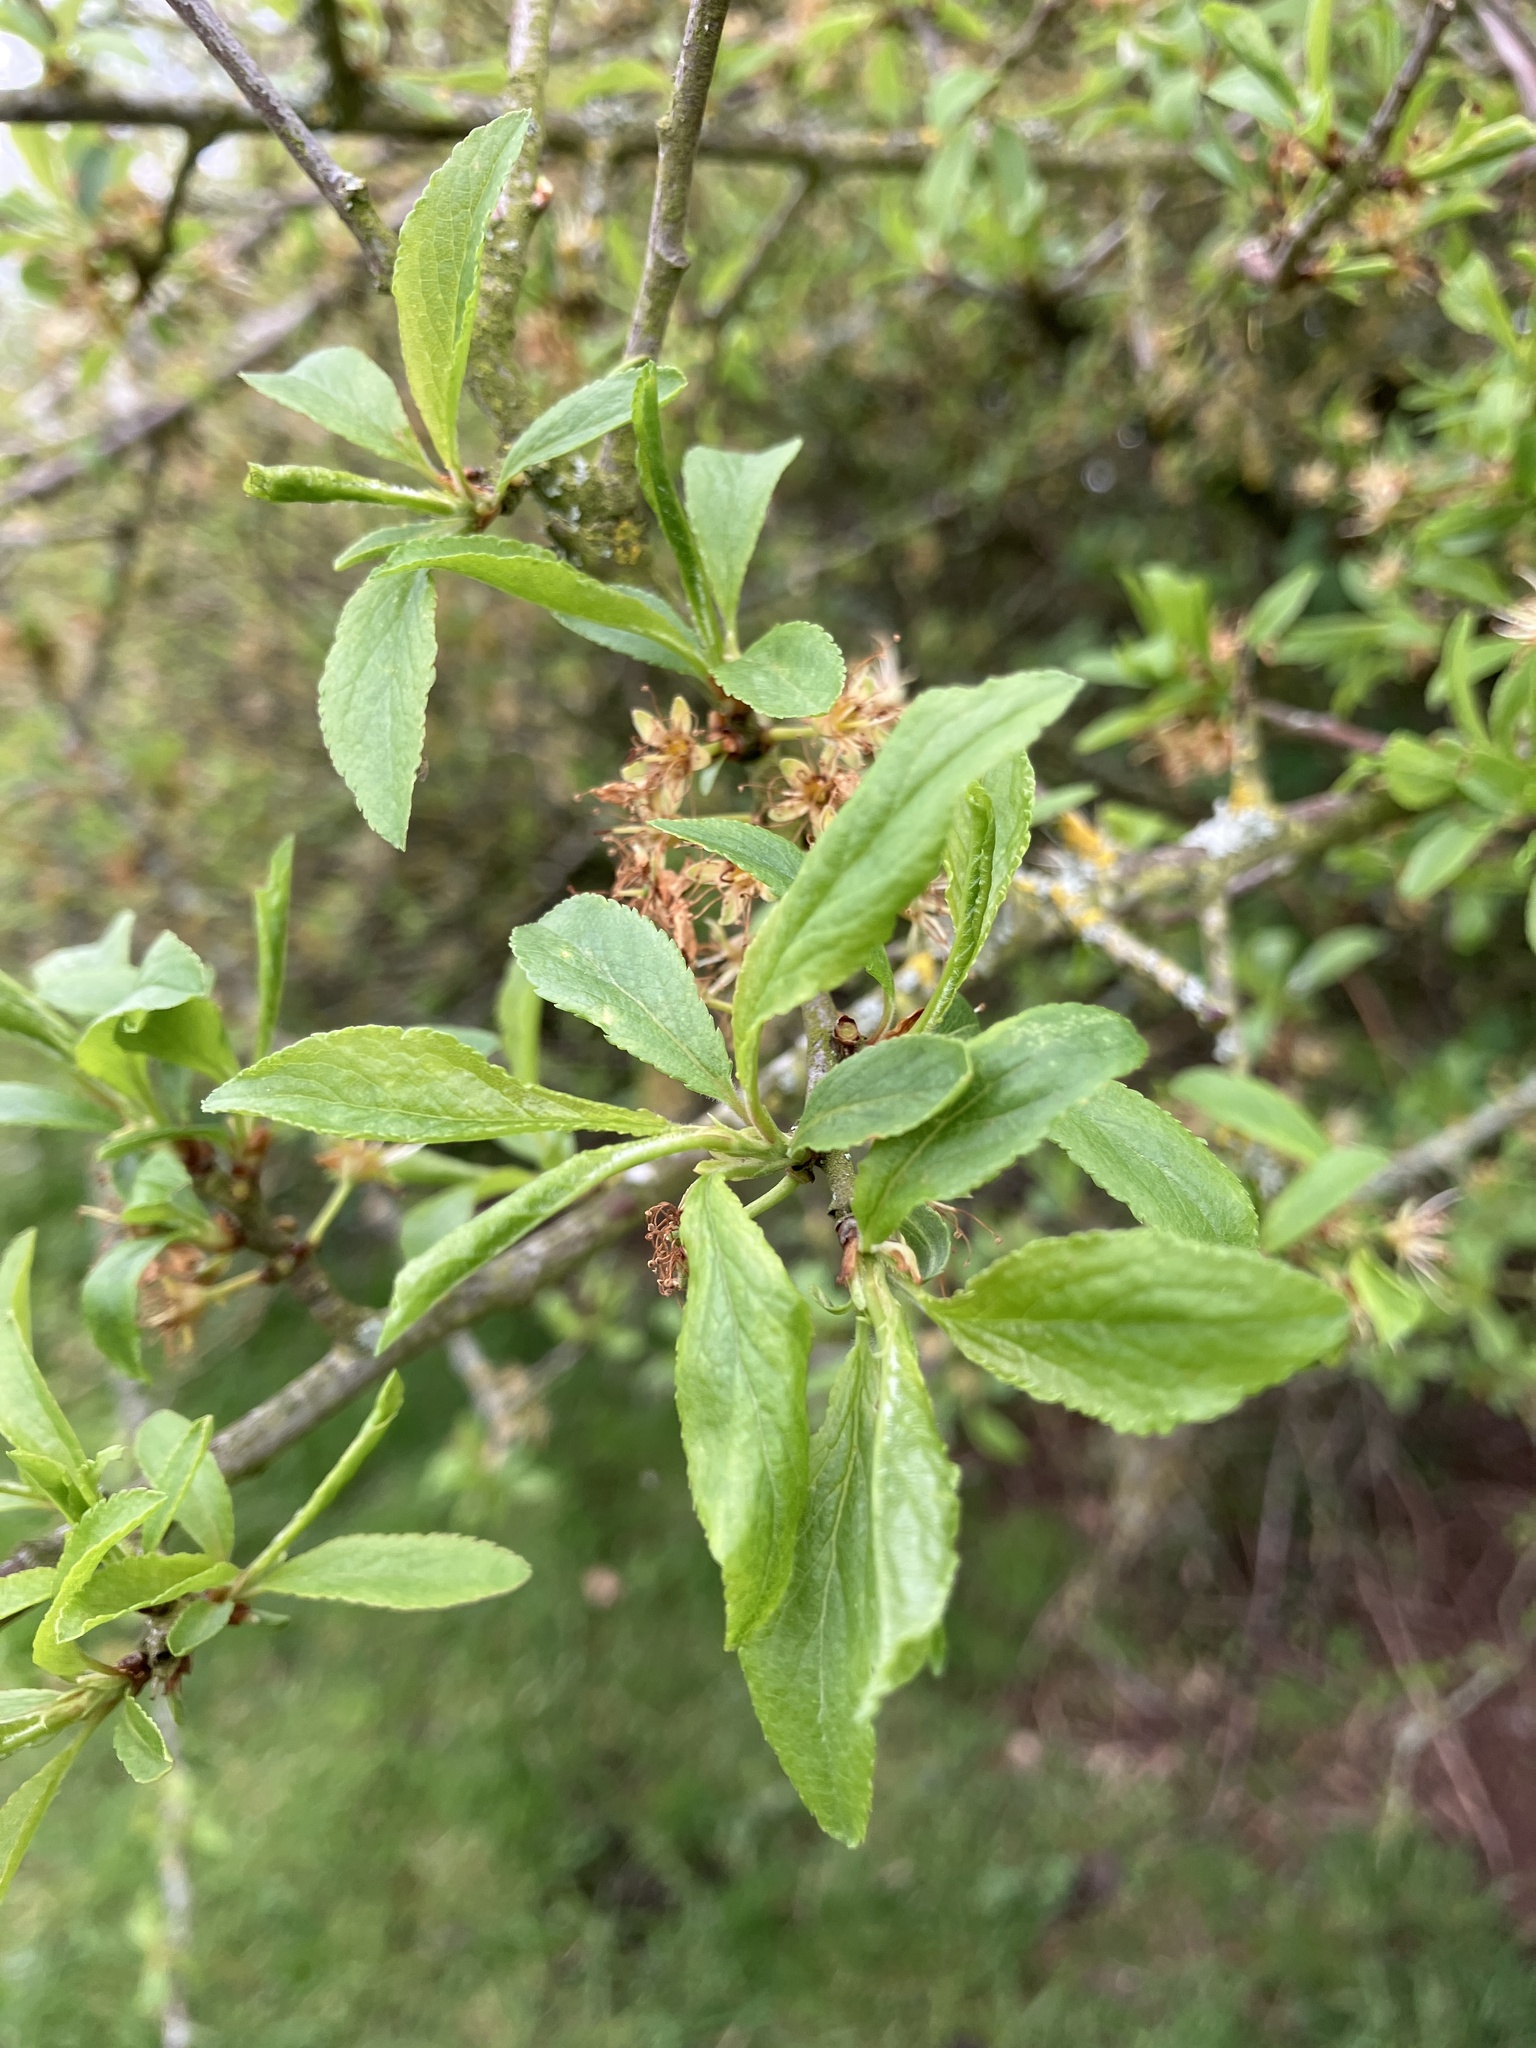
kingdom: Plantae
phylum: Tracheophyta
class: Magnoliopsida
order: Rosales
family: Rosaceae
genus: Prunus
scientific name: Prunus spinosa
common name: Blackthorn
